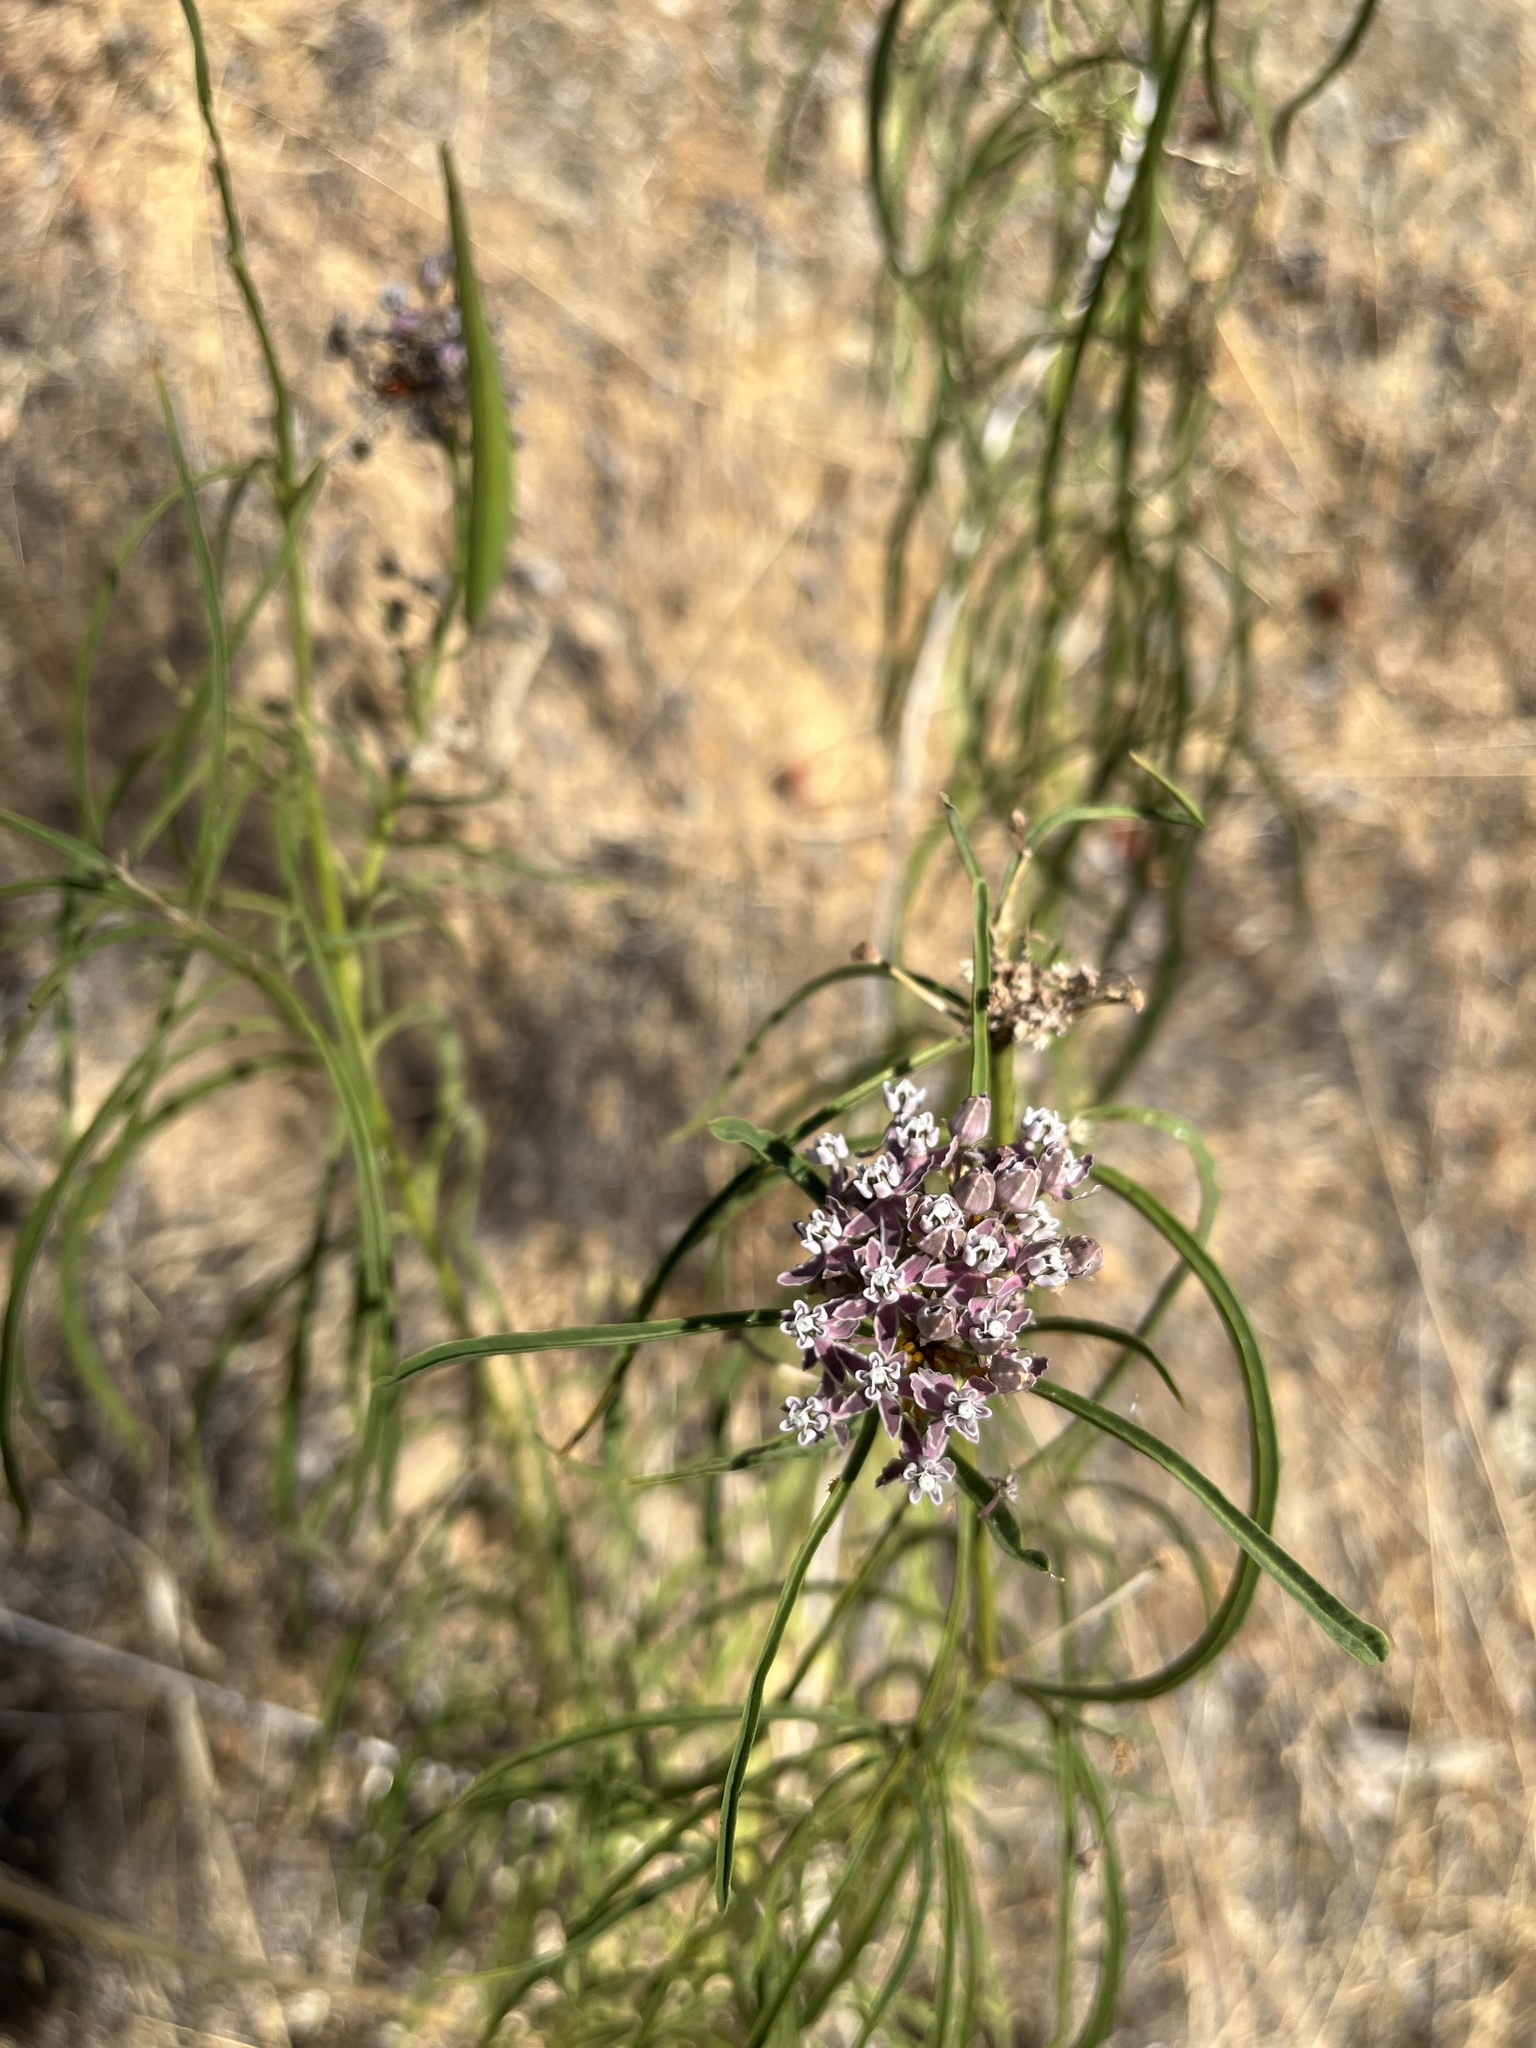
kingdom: Plantae
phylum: Tracheophyta
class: Magnoliopsida
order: Gentianales
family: Apocynaceae
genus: Asclepias
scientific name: Asclepias fascicularis
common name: Mexican milkweed
